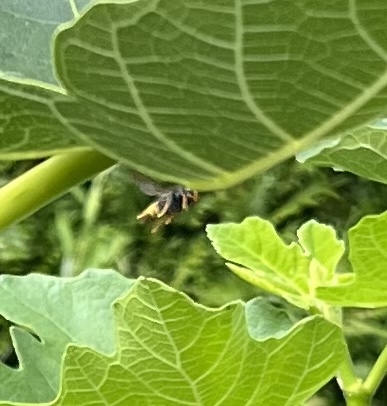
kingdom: Animalia
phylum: Arthropoda
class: Insecta
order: Hymenoptera
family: Vespidae
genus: Vespa
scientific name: Vespa velutina
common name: Asian hornet
